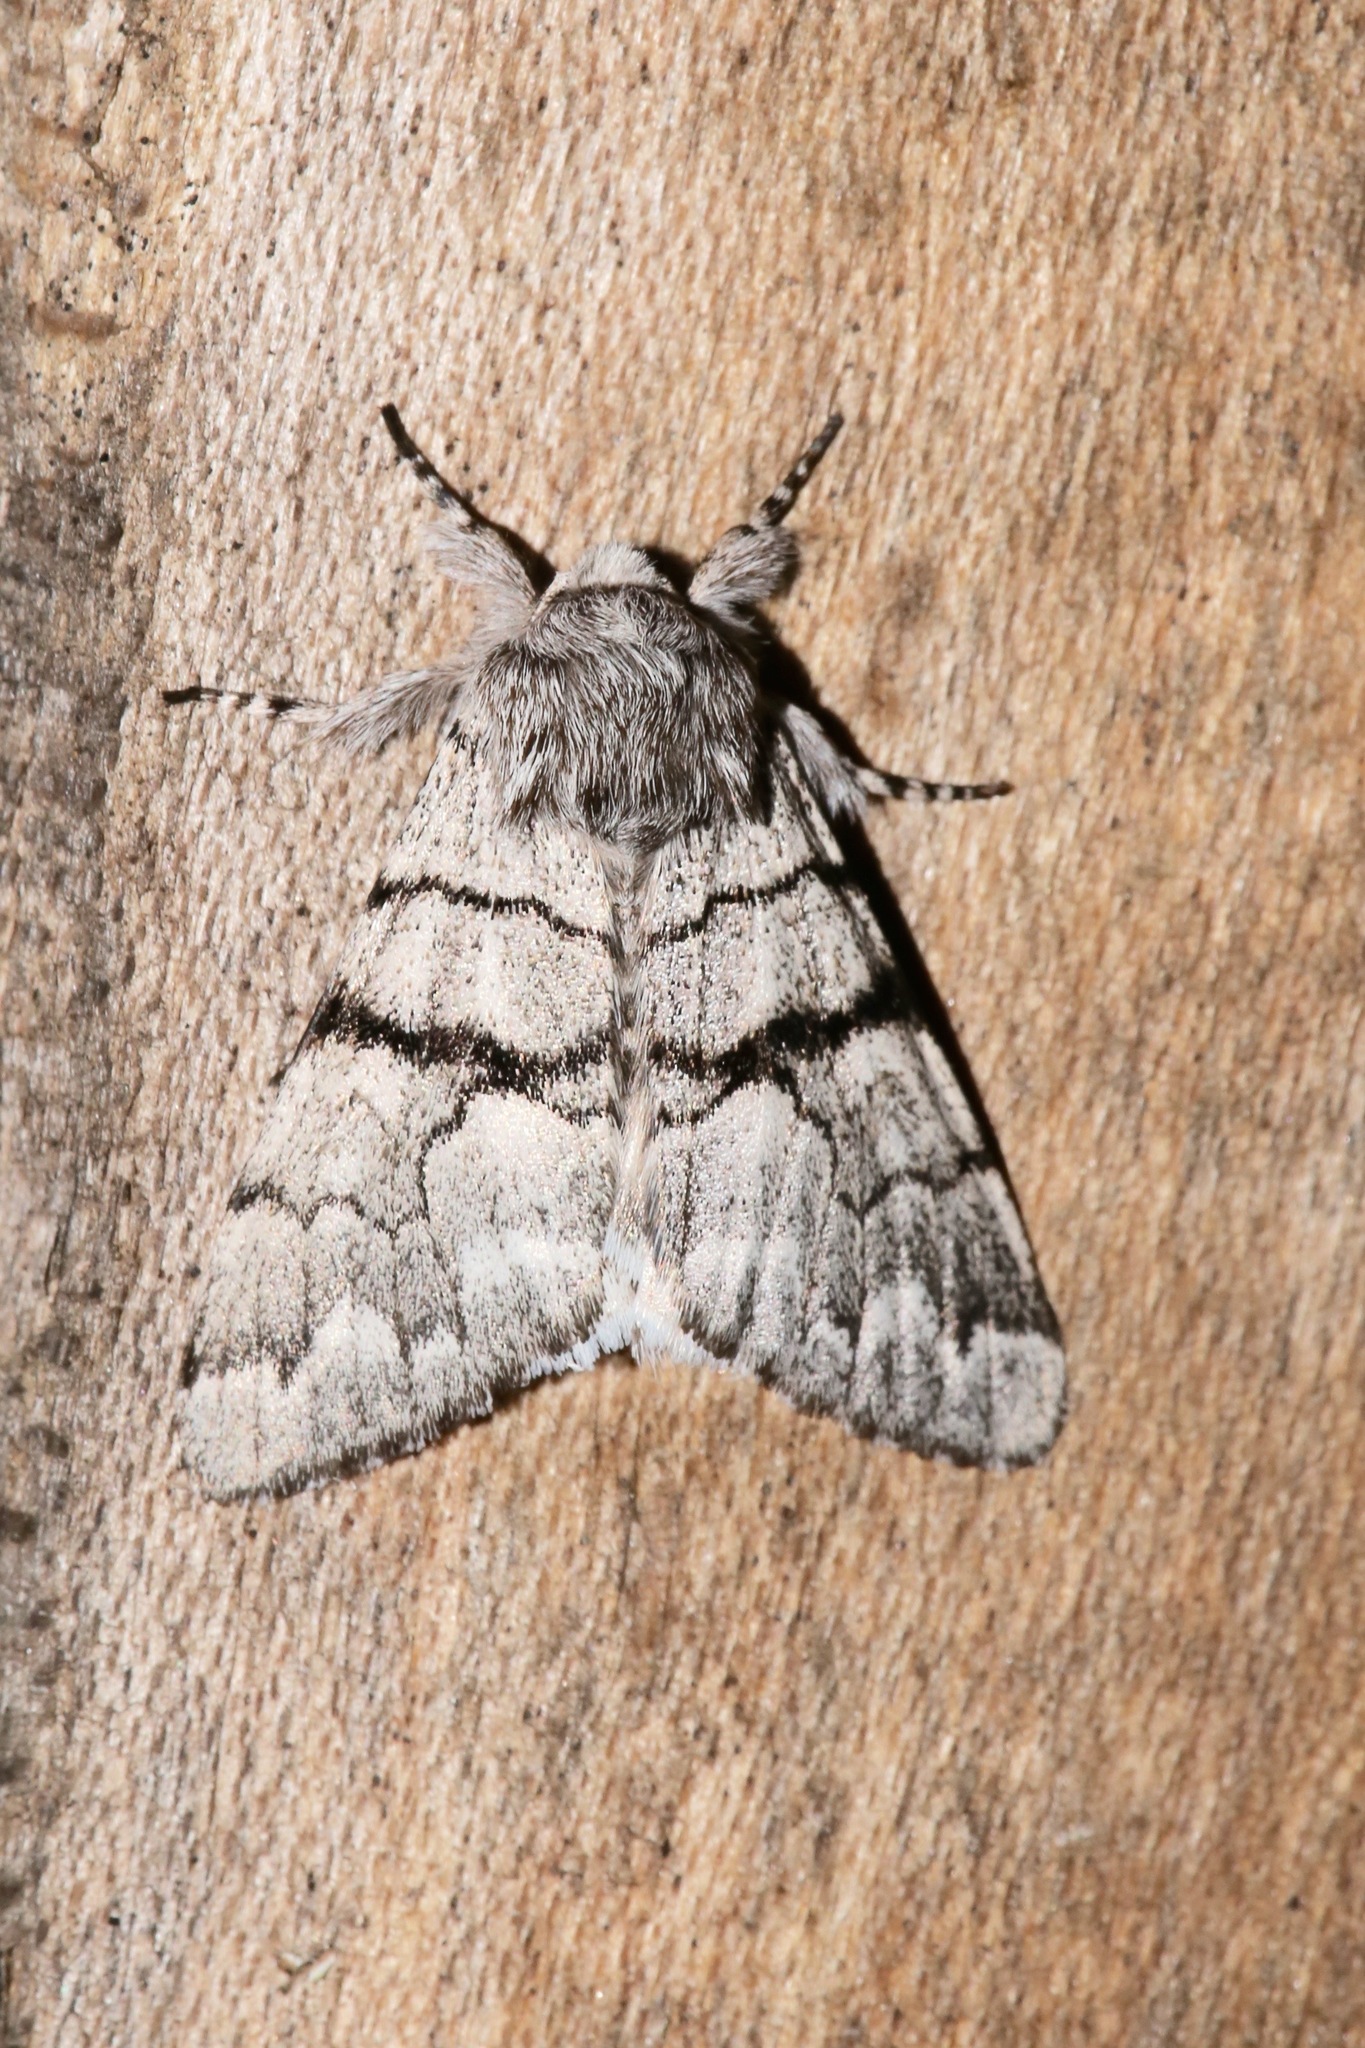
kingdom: Animalia
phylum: Arthropoda
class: Insecta
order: Lepidoptera
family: Noctuidae
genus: Panthea
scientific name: Panthea furcilla
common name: Eastern panthea moth
